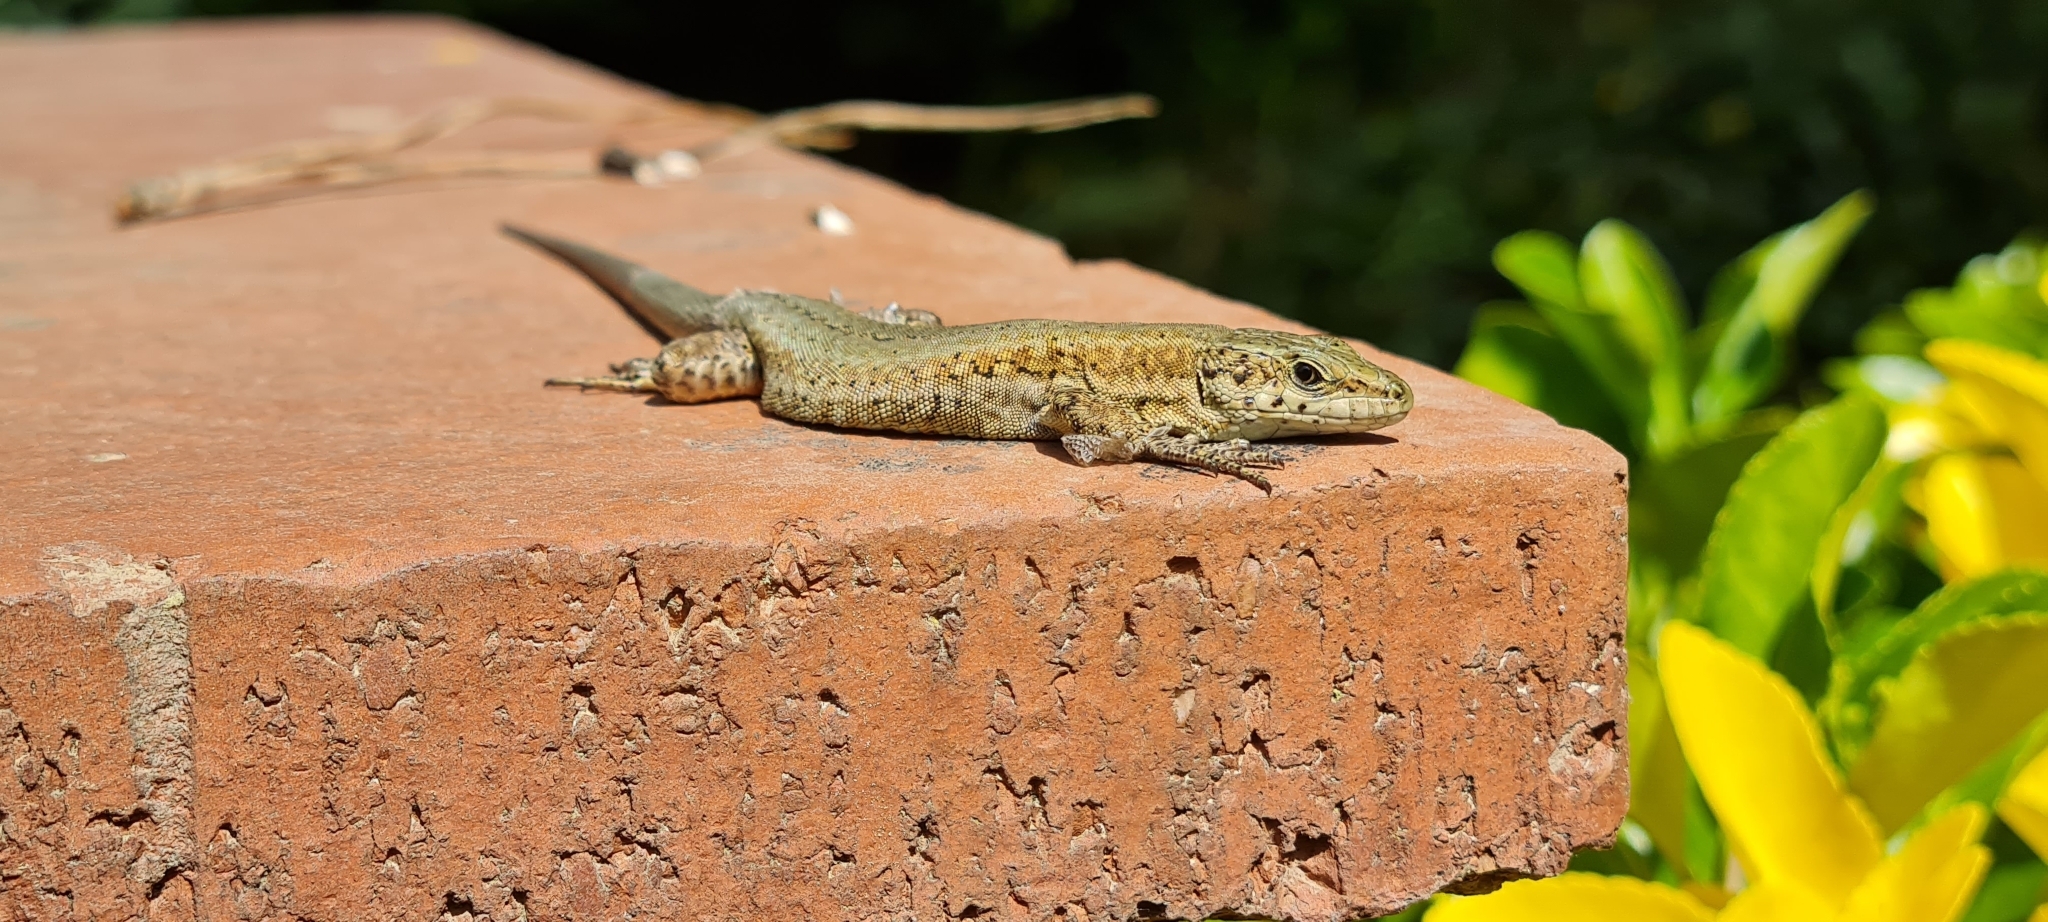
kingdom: Animalia
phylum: Chordata
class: Squamata
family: Lacertidae
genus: Podarcis
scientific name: Podarcis liolepis
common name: Catalonian wall lizard
